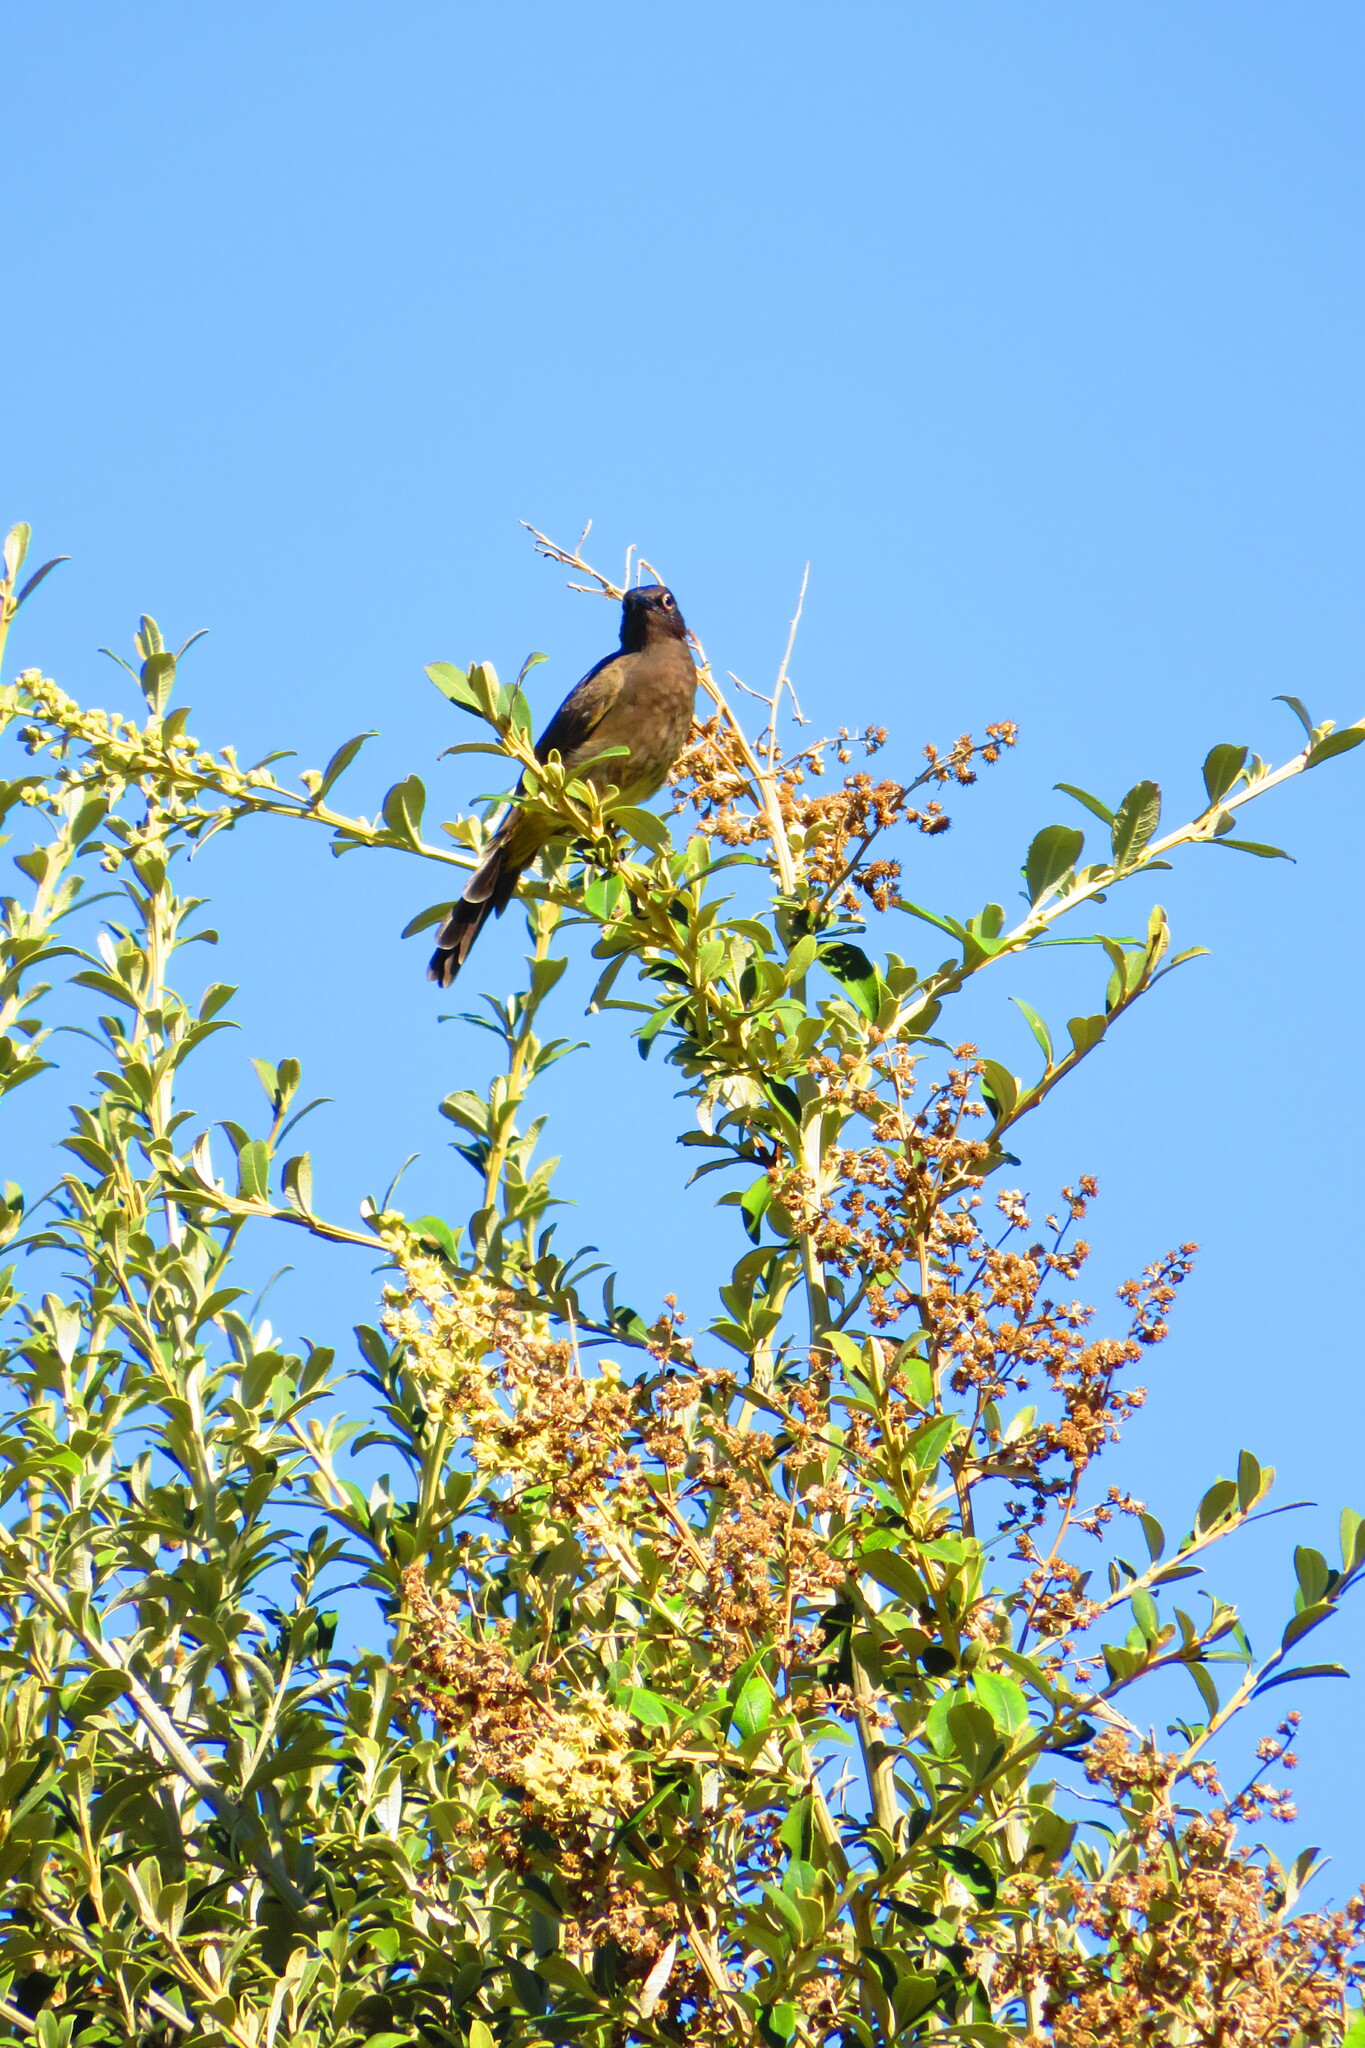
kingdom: Animalia
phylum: Chordata
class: Aves
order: Passeriformes
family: Pycnonotidae
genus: Pycnonotus
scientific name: Pycnonotus capensis
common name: Cape bulbul
